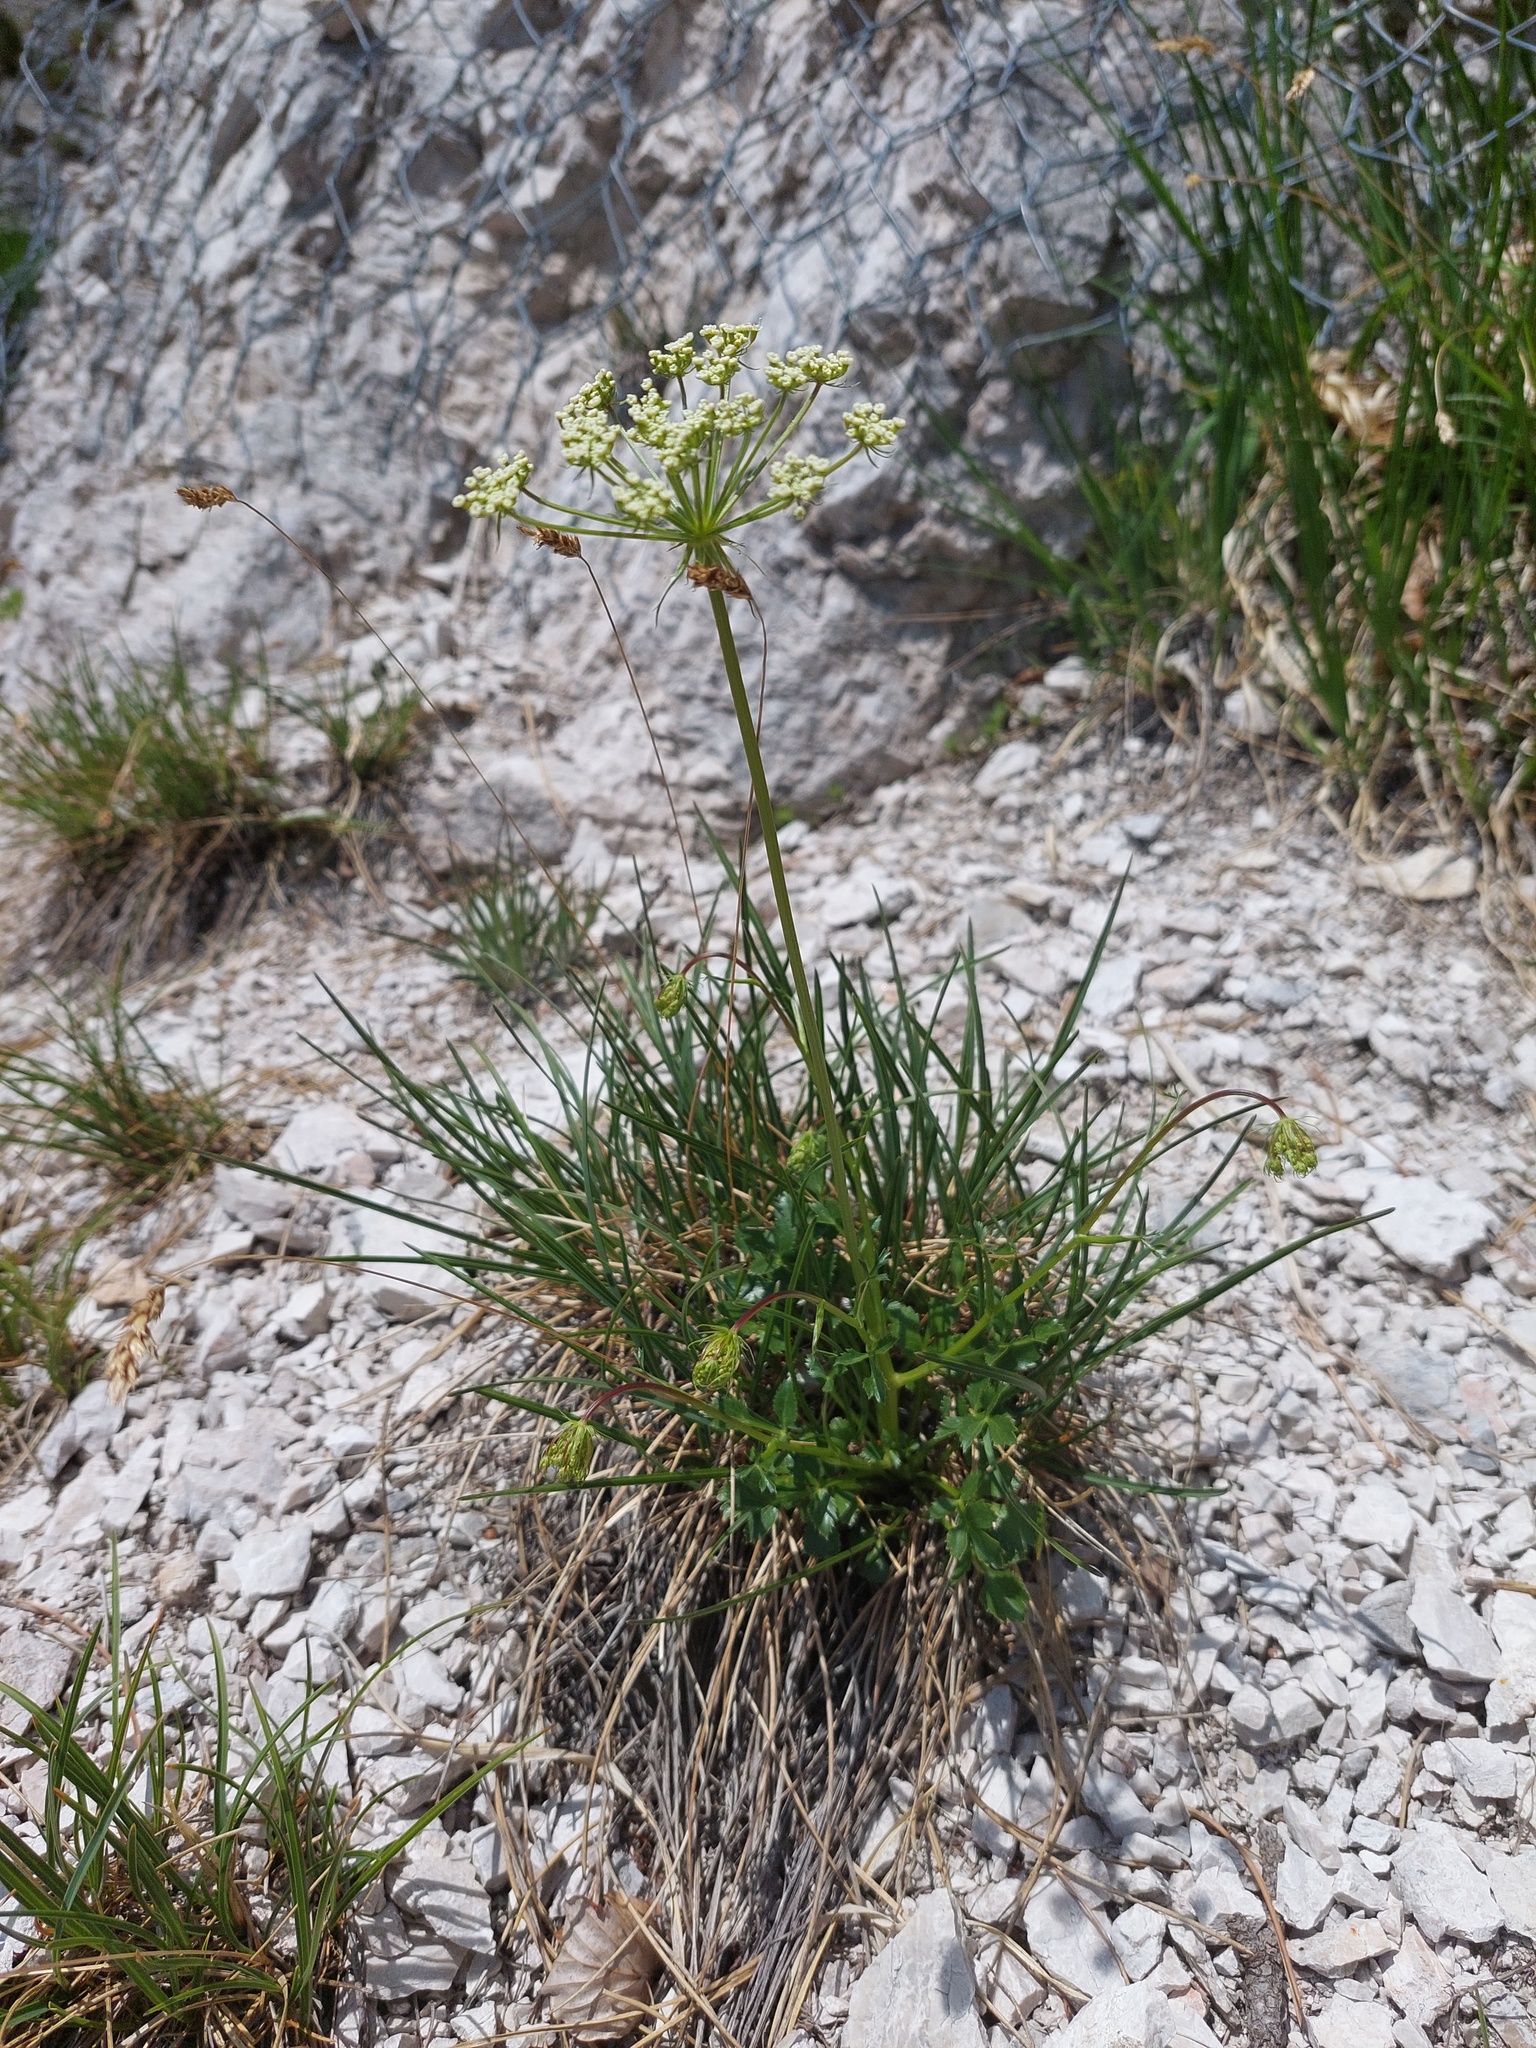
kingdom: Plantae
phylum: Tracheophyta
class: Magnoliopsida
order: Apiales
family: Apiaceae
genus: Hladnikia
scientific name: Hladnikia pastinacifolia
